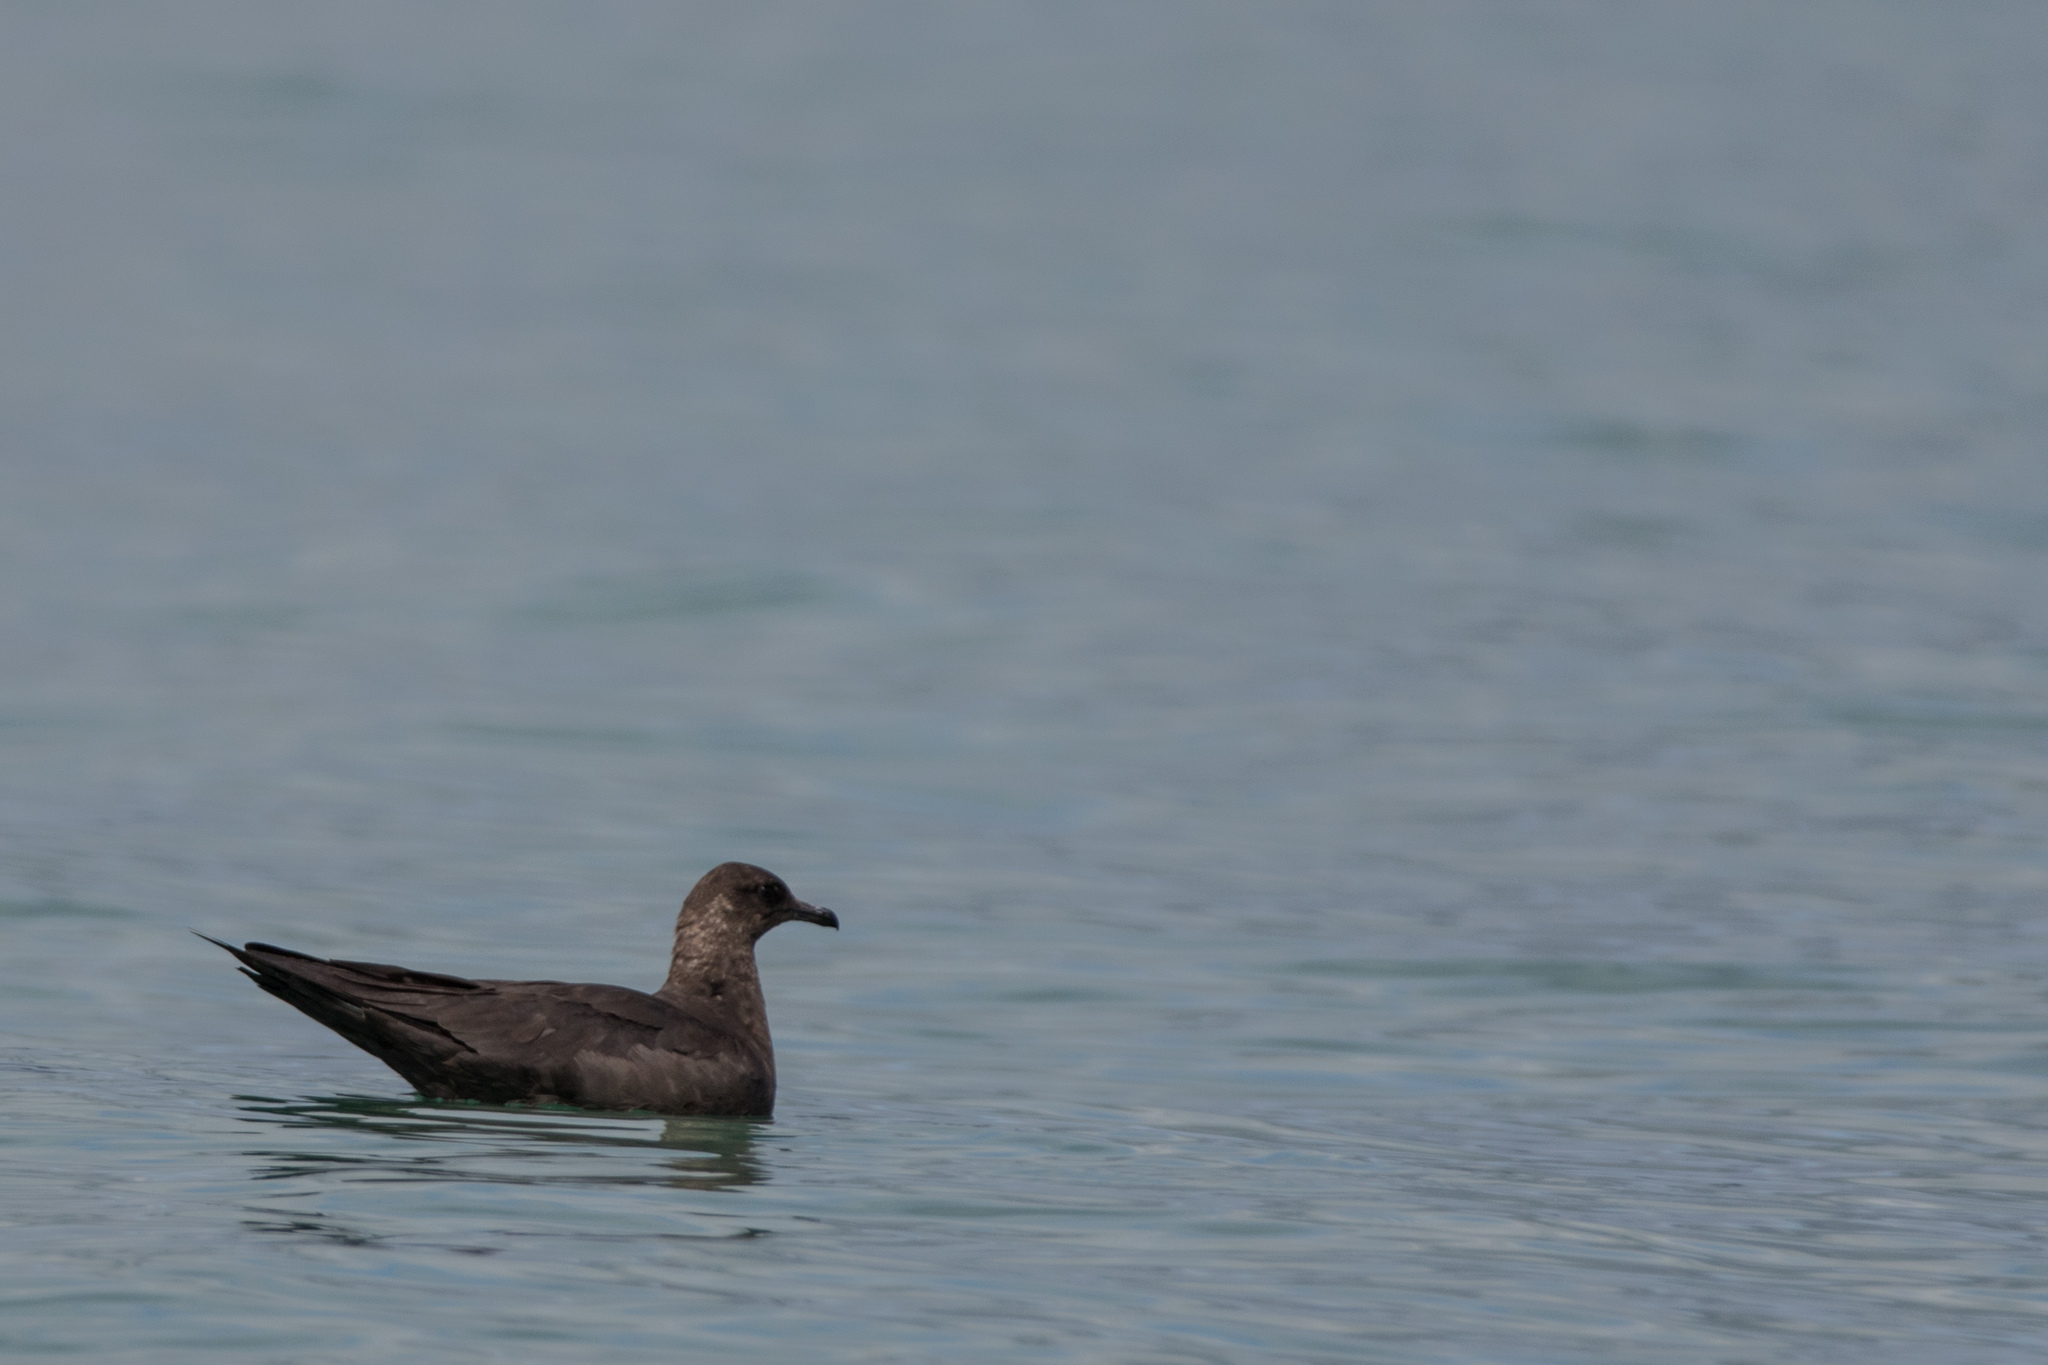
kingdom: Animalia
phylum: Chordata
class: Aves
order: Charadriiformes
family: Stercorariidae
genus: Stercorarius
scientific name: Stercorarius parasiticus
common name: Parasitic jaeger
